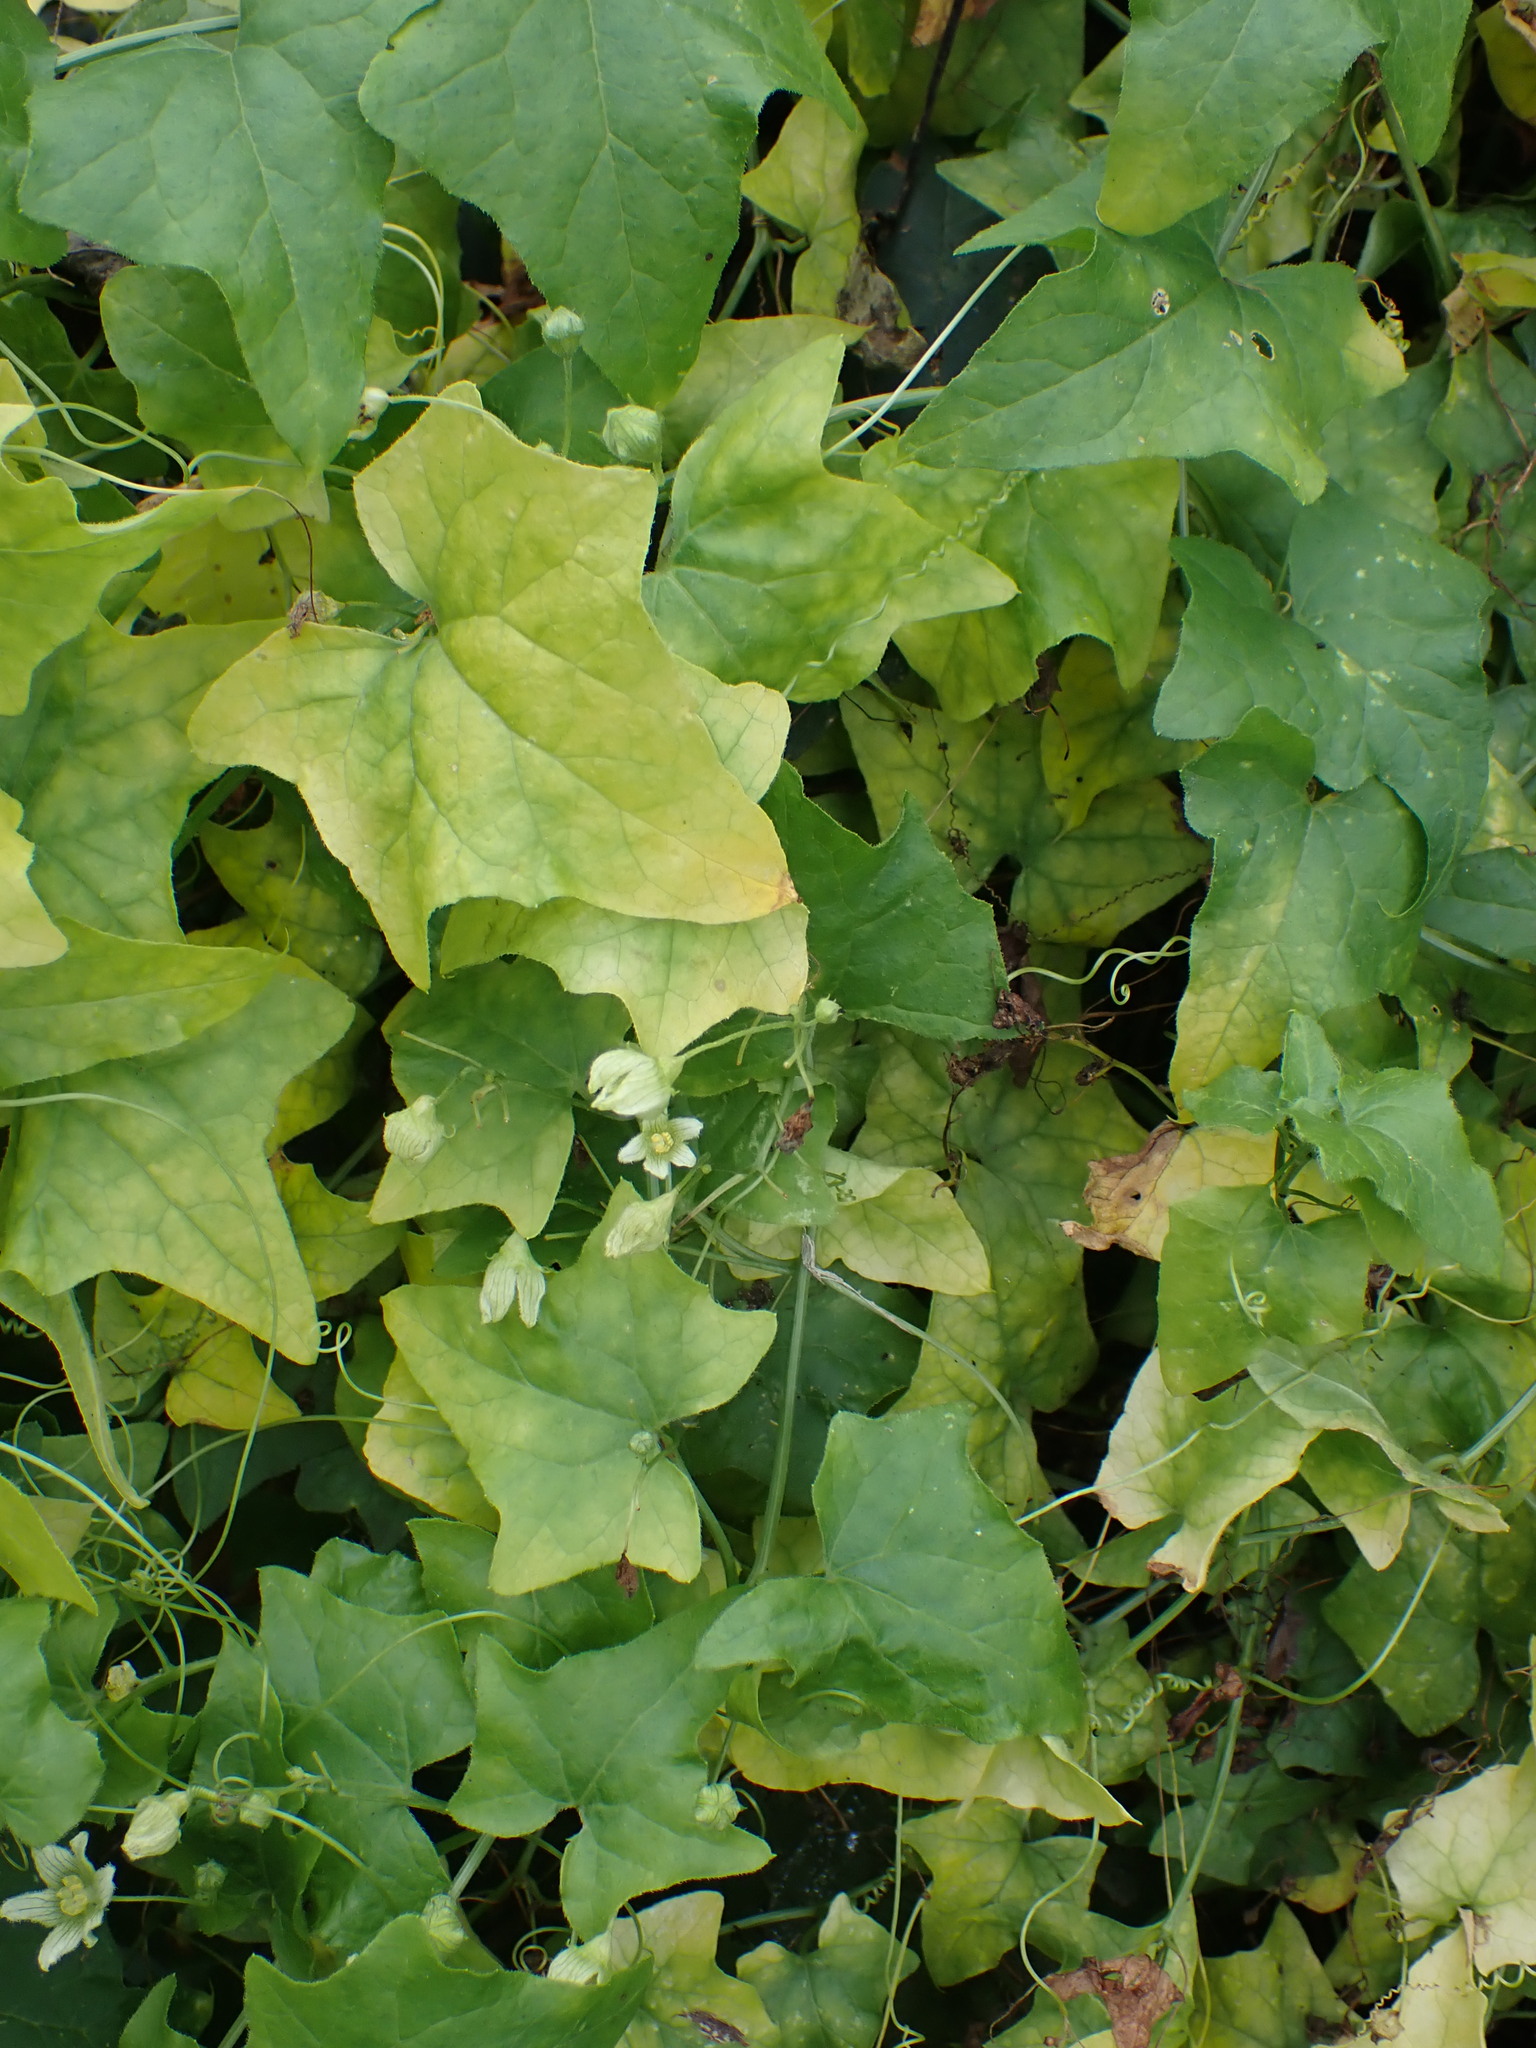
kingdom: Plantae
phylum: Tracheophyta
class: Magnoliopsida
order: Cucurbitales
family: Cucurbitaceae
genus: Bryonia
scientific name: Bryonia dioica
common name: White bryony
